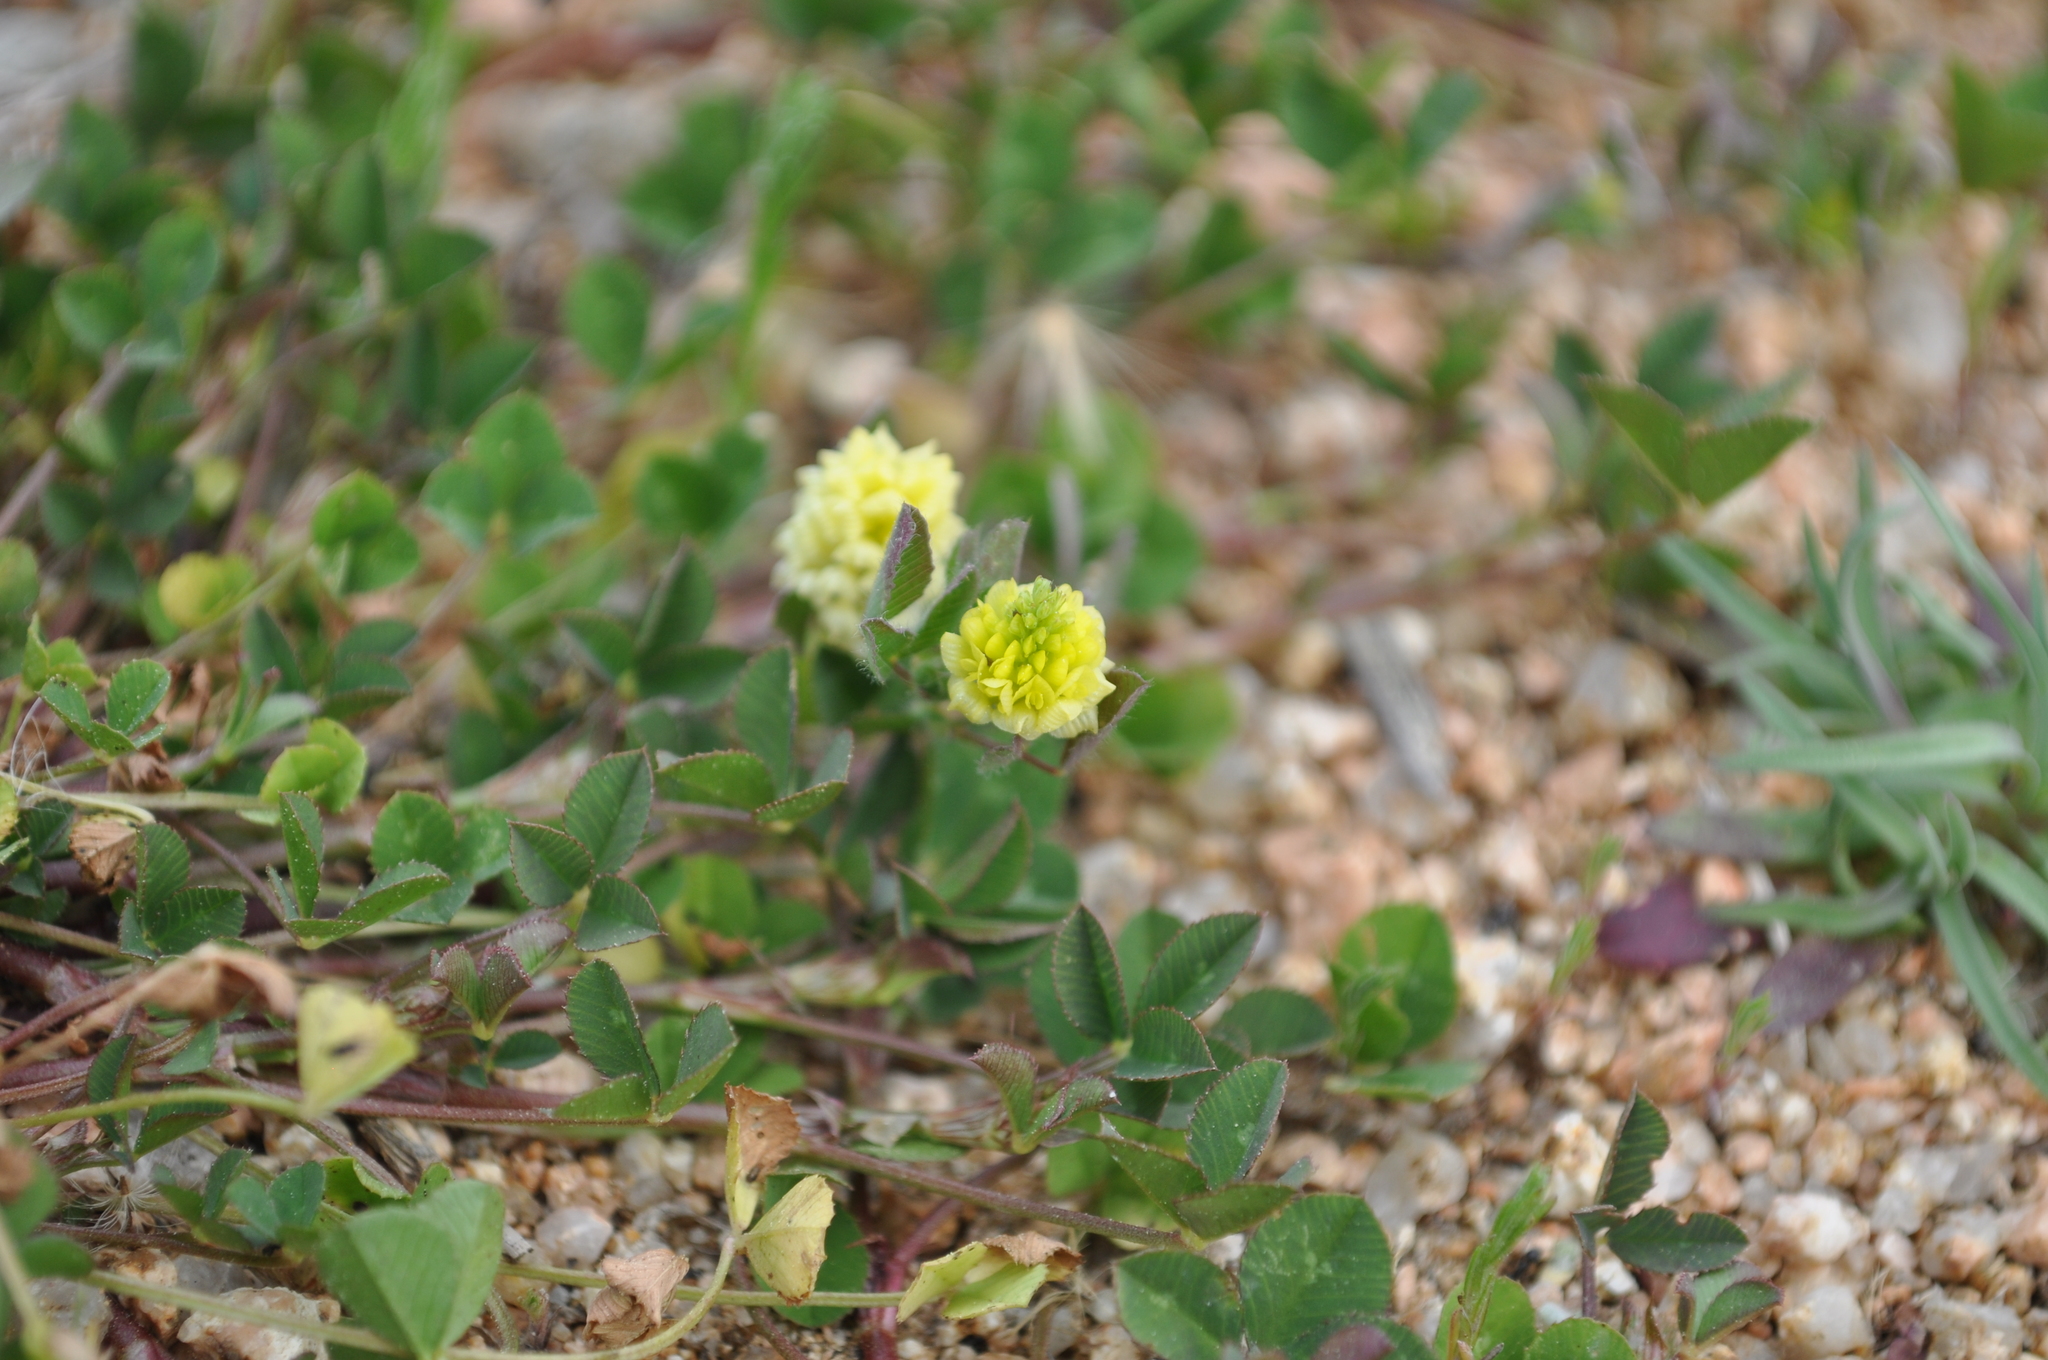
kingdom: Plantae
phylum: Tracheophyta
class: Magnoliopsida
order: Fabales
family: Fabaceae
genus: Trifolium
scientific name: Trifolium campestre
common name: Field clover
